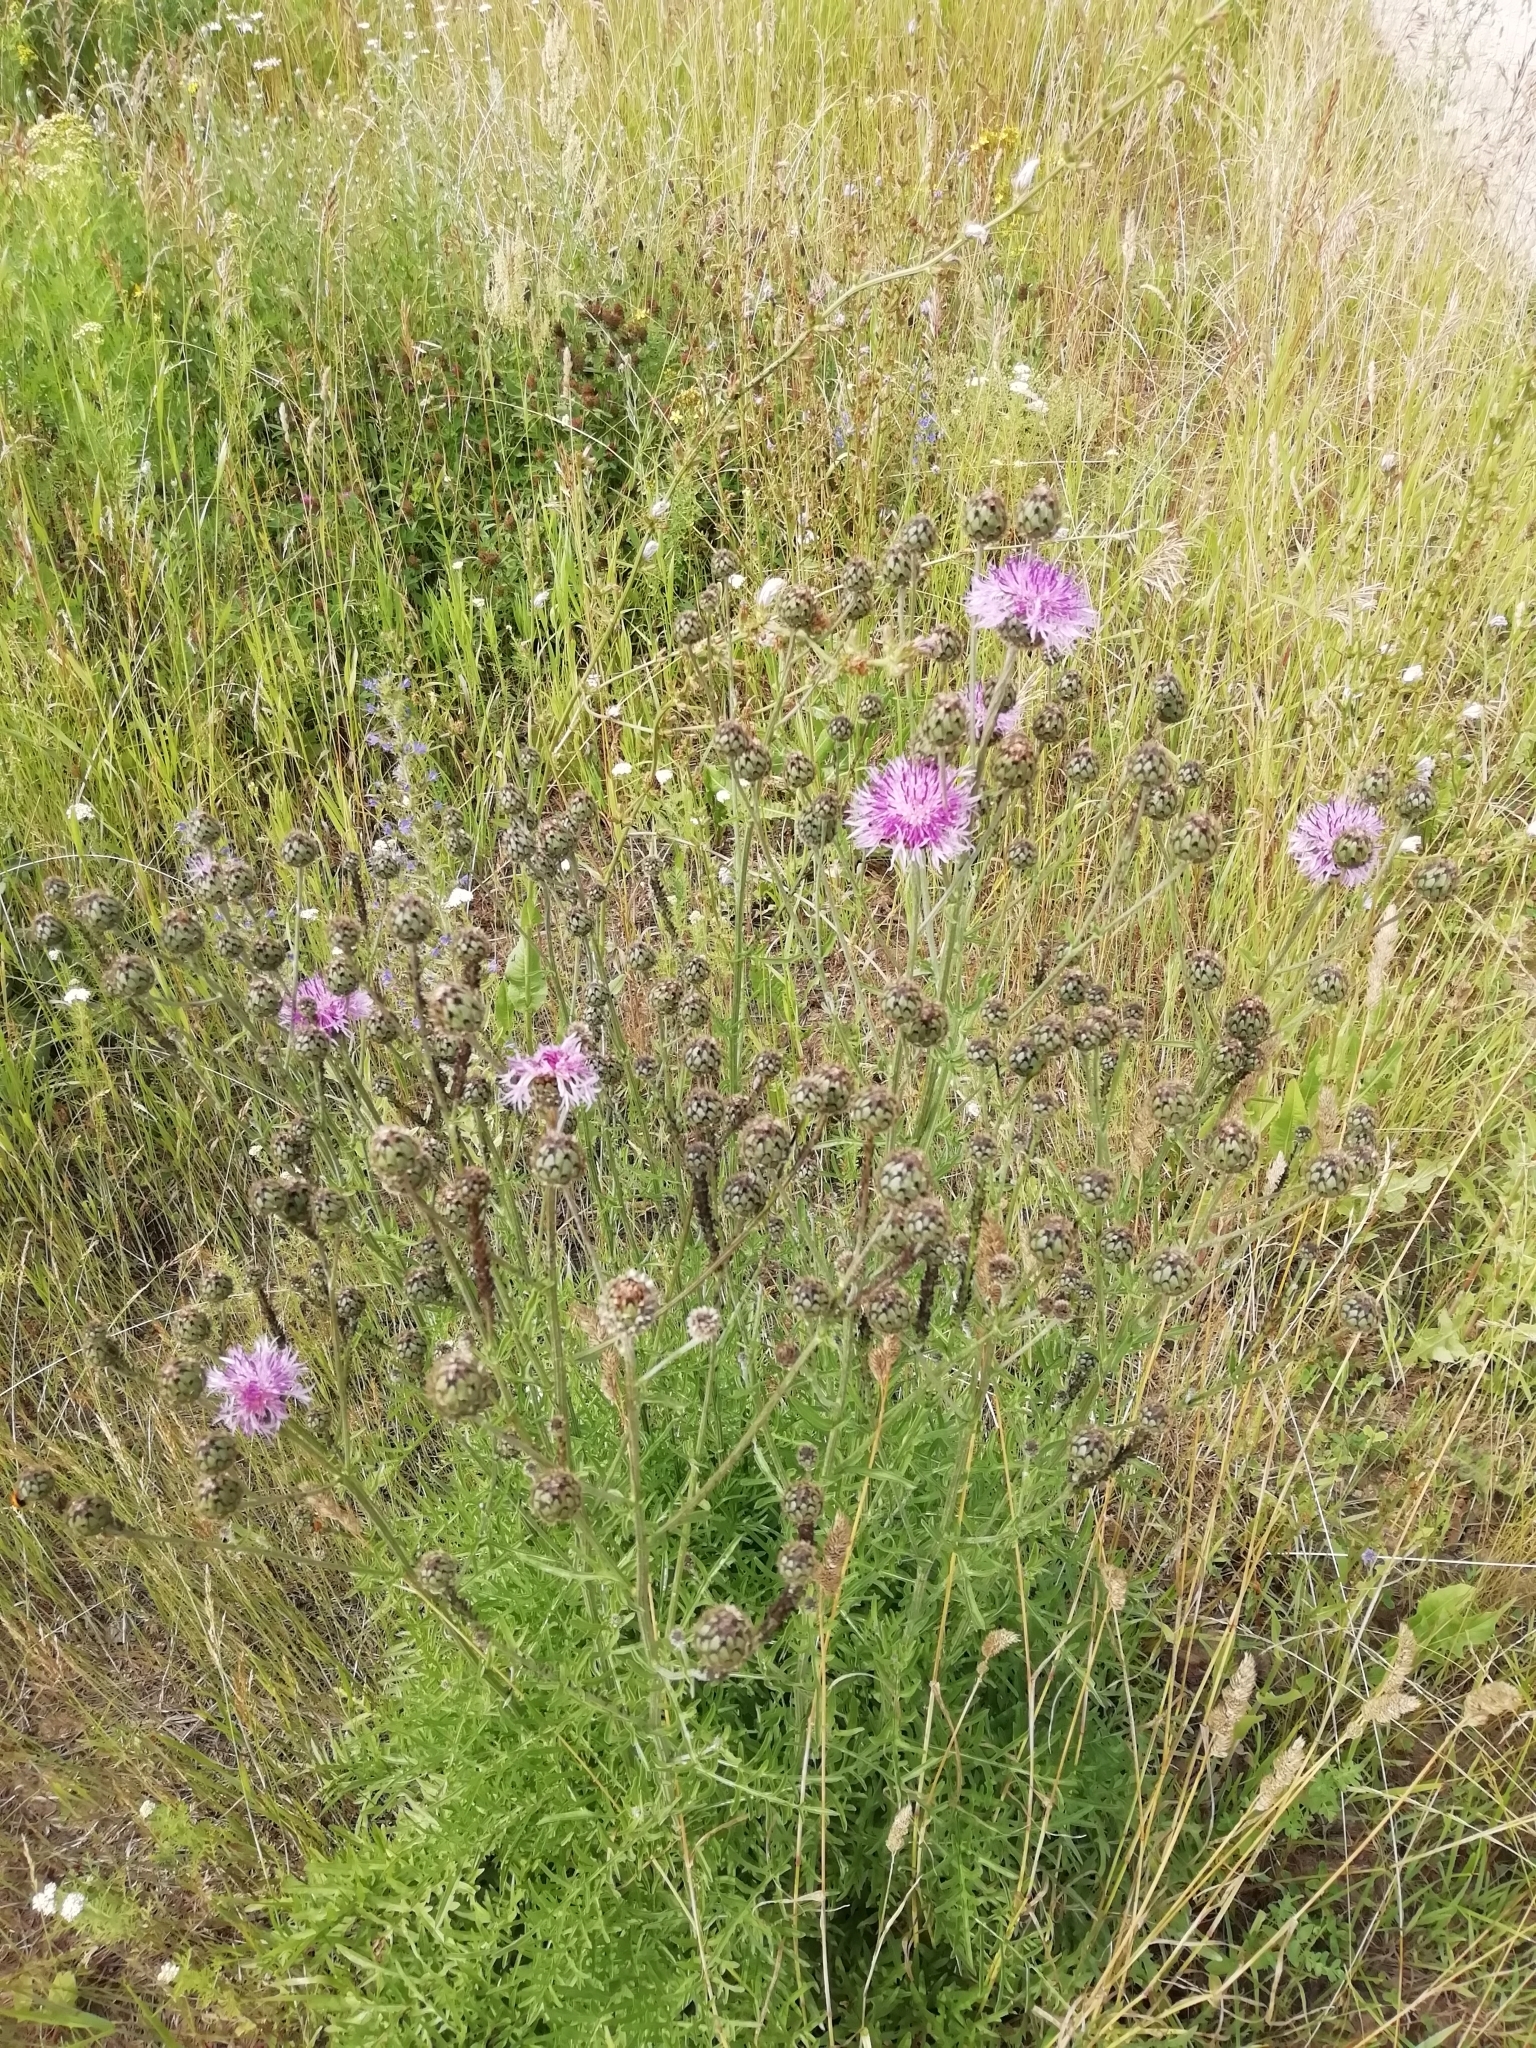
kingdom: Plantae
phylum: Tracheophyta
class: Magnoliopsida
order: Asterales
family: Asteraceae
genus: Centaurea
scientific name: Centaurea scabiosa
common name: Greater knapweed
